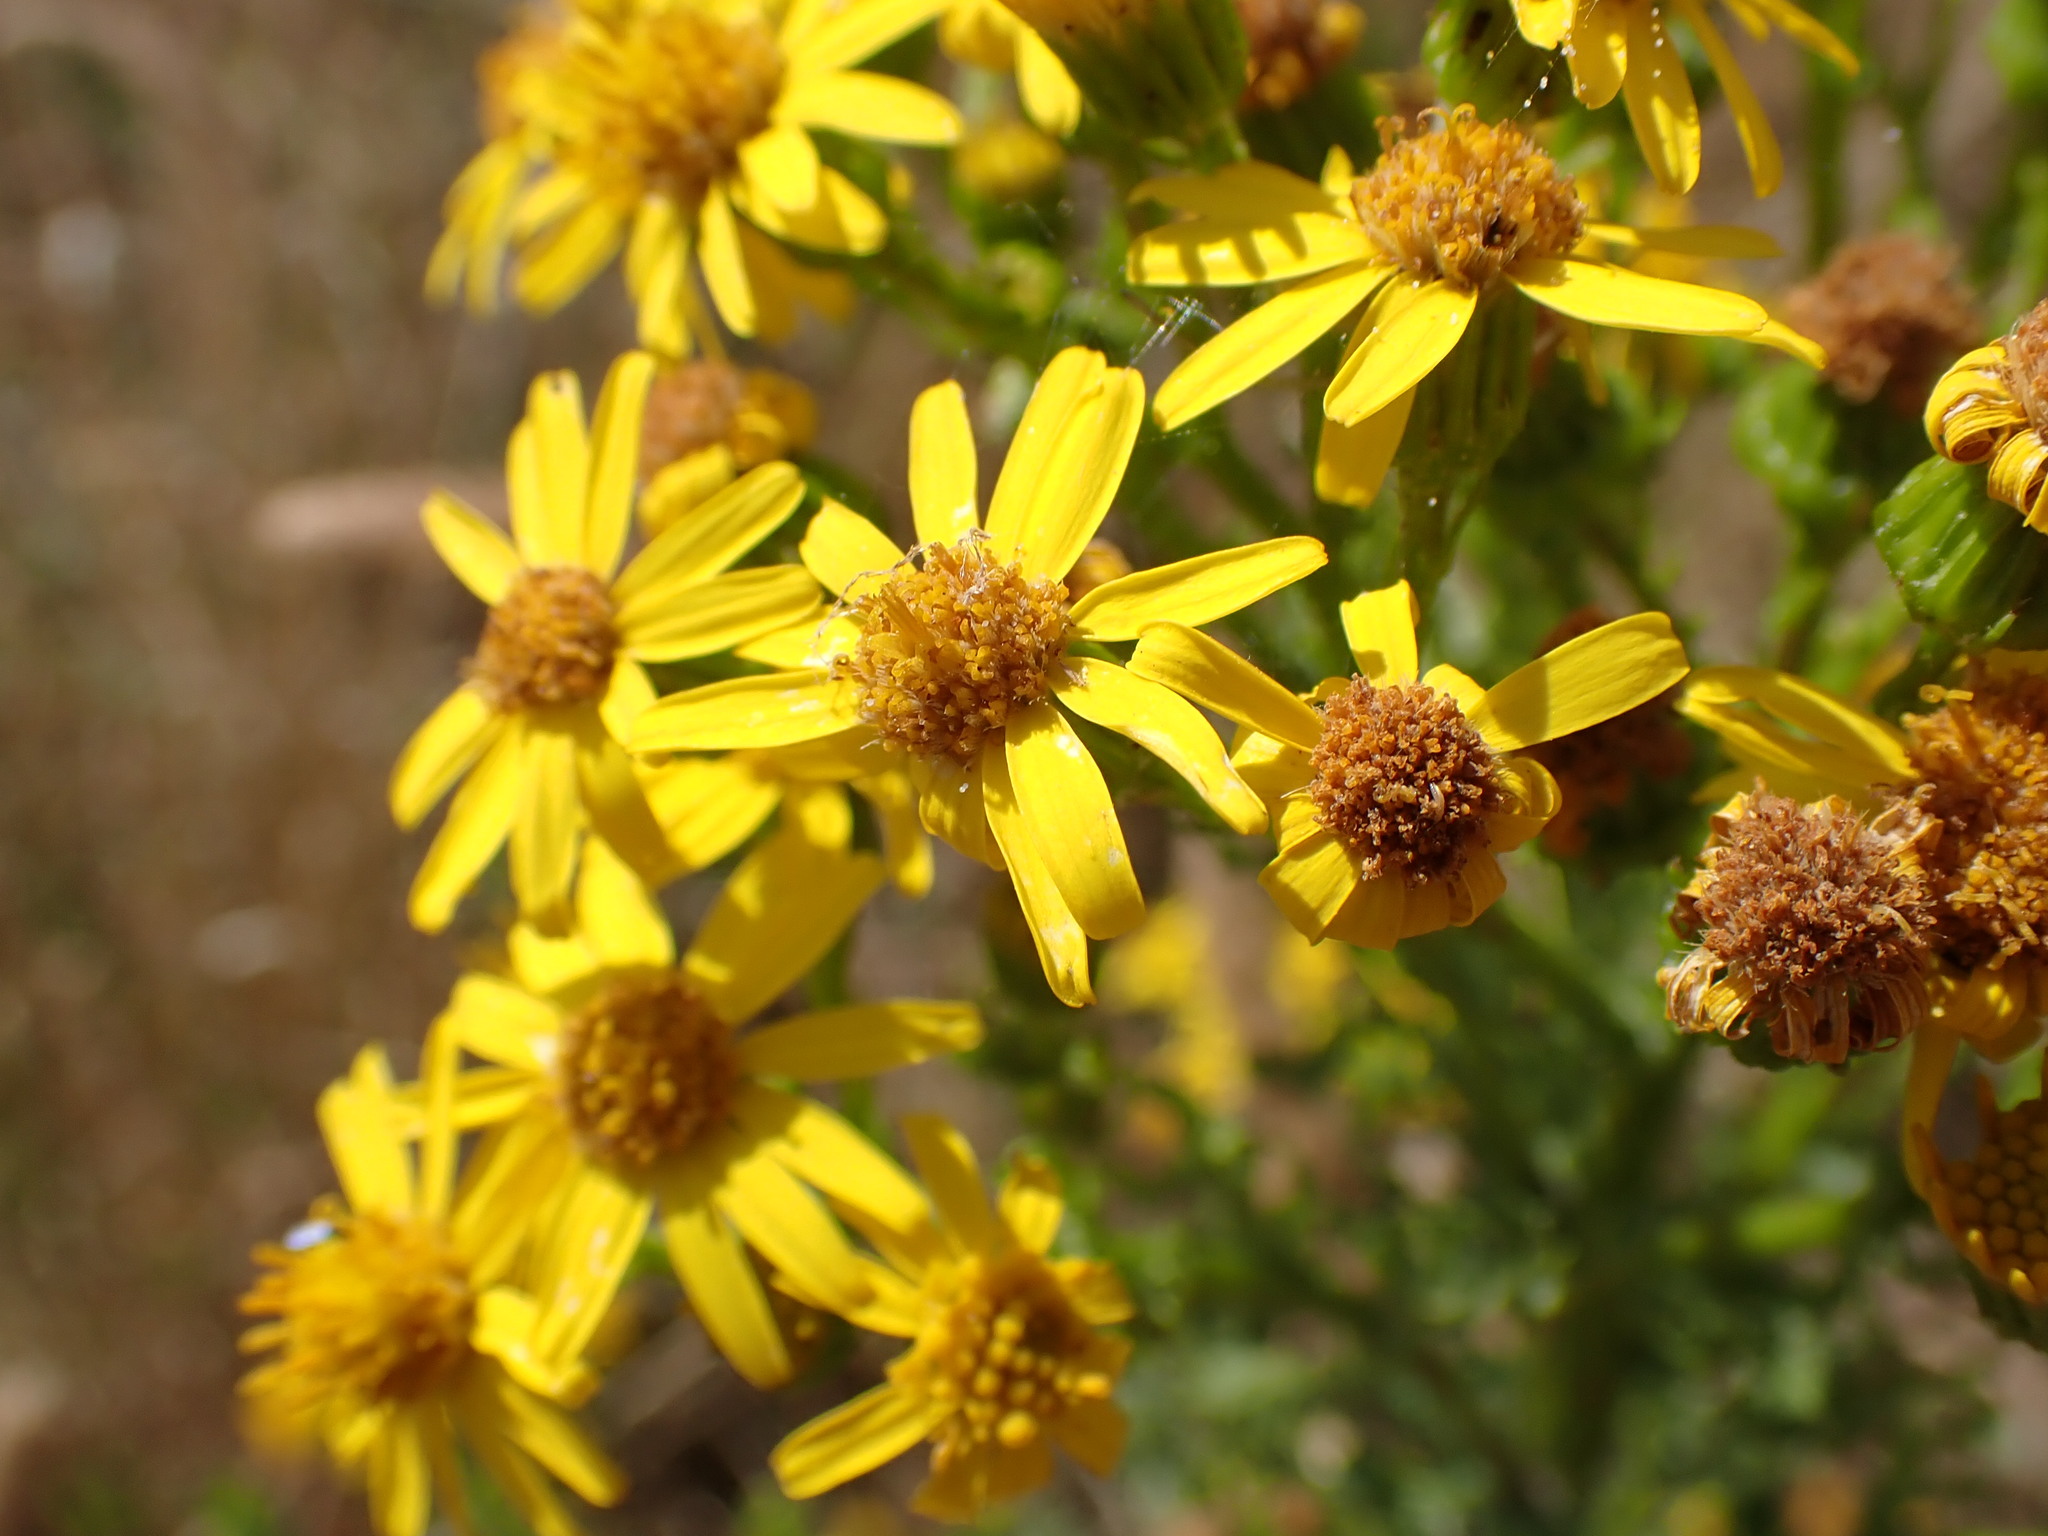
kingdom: Plantae
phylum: Tracheophyta
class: Magnoliopsida
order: Asterales
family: Asteraceae
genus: Jacobaea
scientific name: Jacobaea vulgaris
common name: Stinking willie
